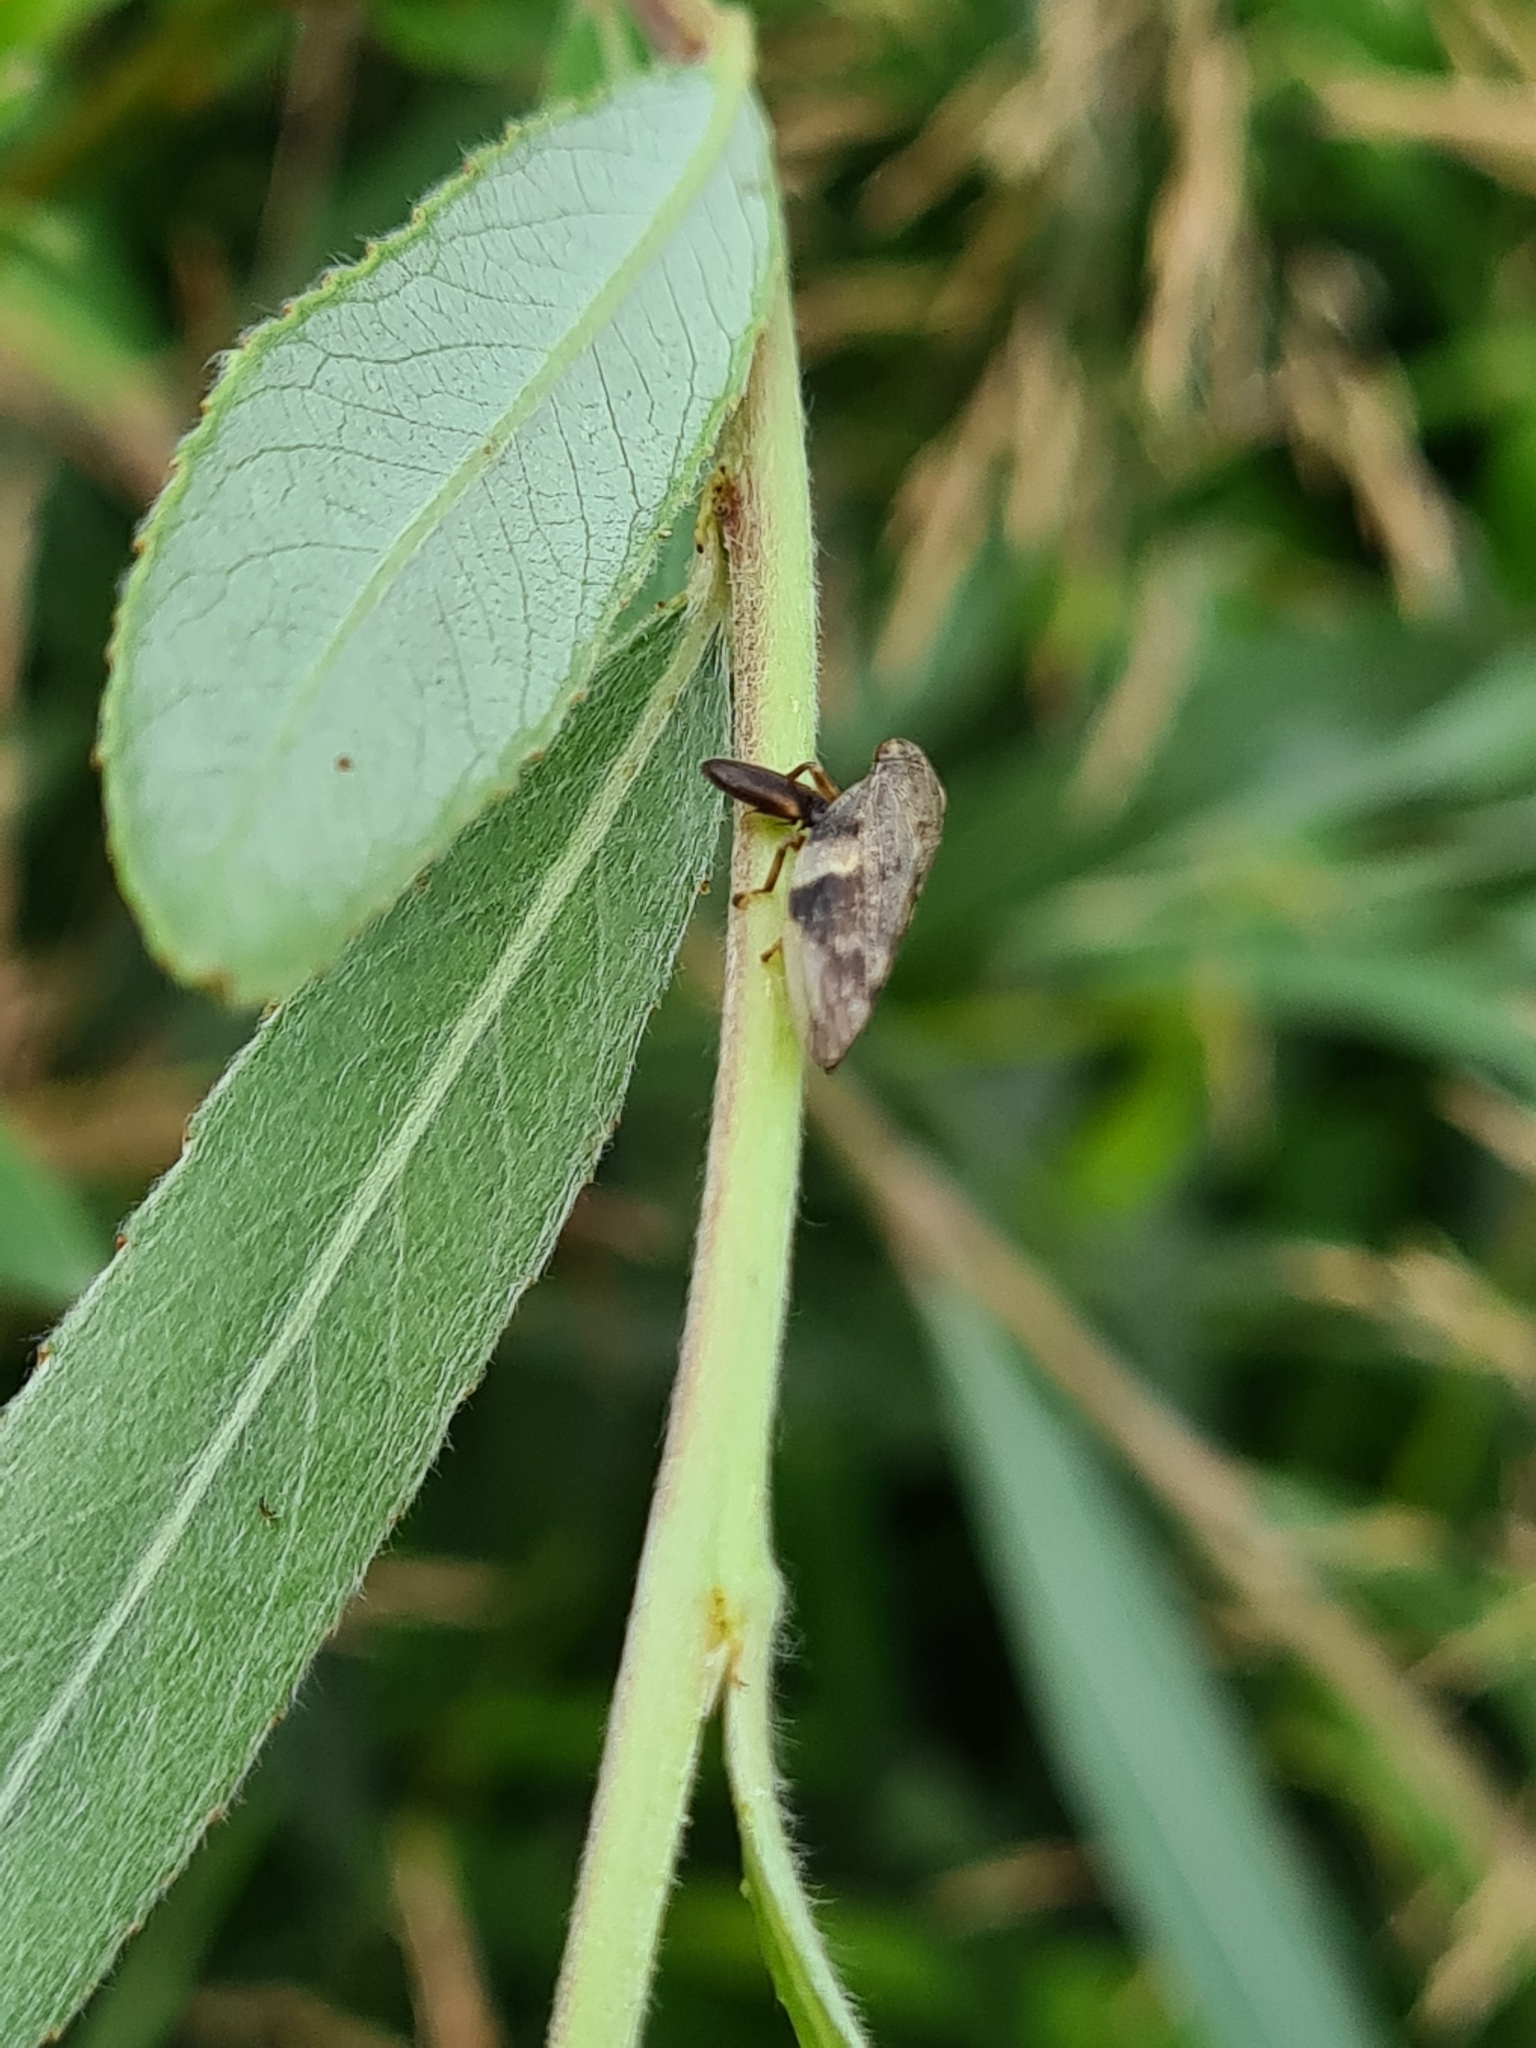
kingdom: Animalia
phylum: Arthropoda
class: Insecta
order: Hemiptera
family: Aphrophoridae
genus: Aphrophora
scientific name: Aphrophora alni
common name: European alder spittlebug
